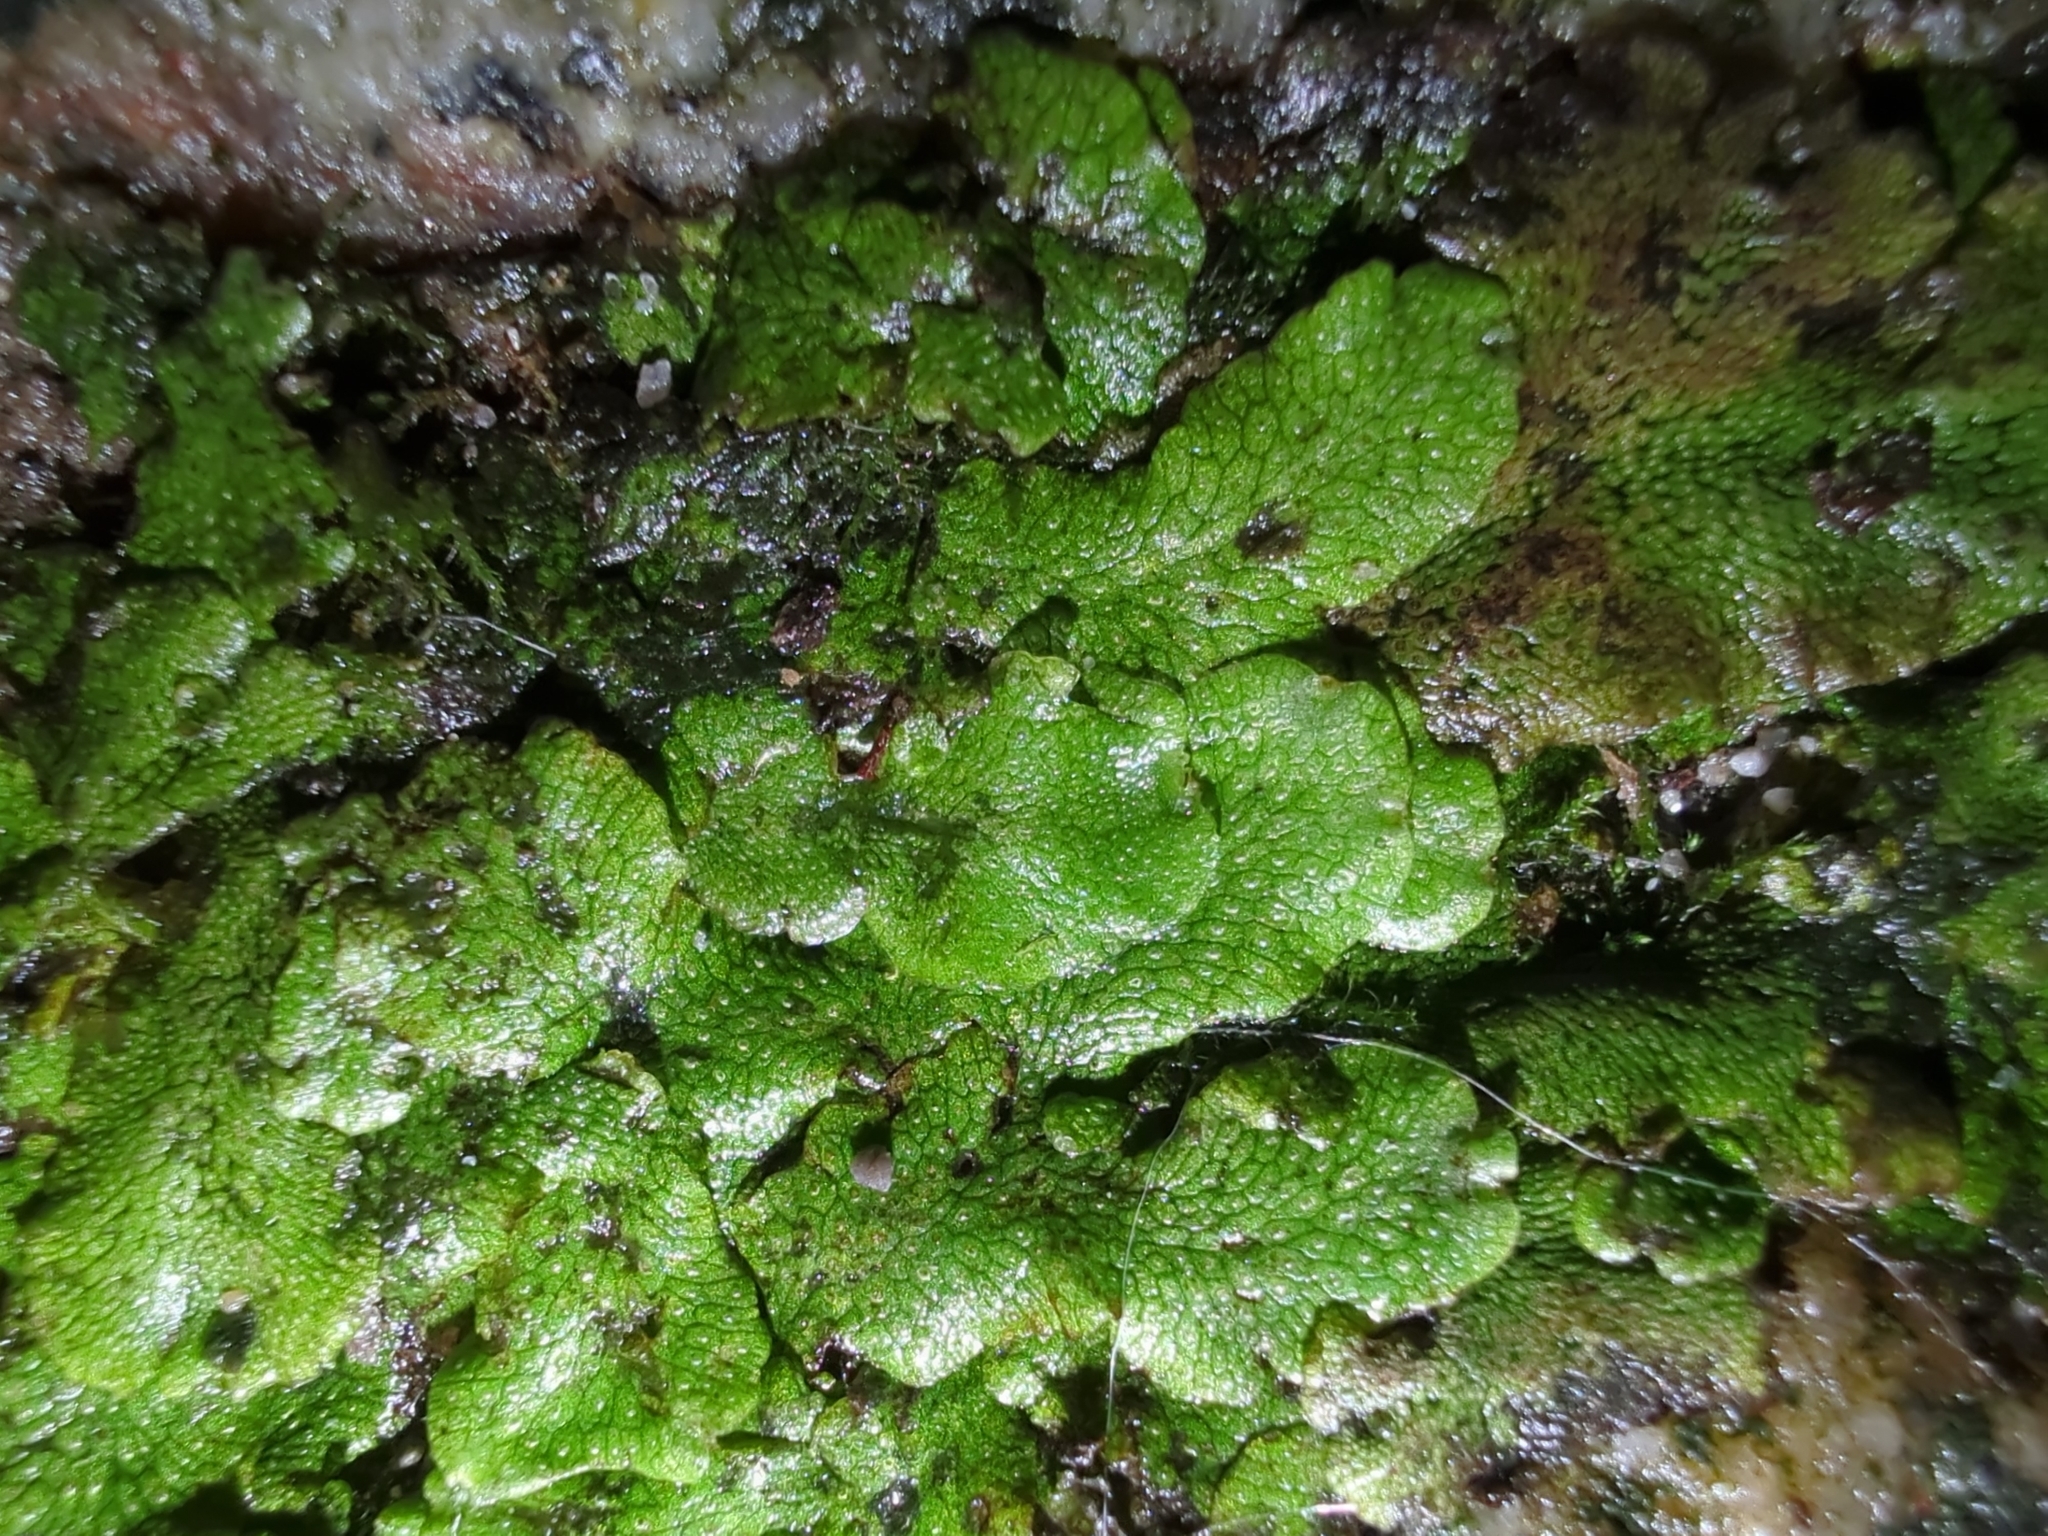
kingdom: Plantae
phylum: Marchantiophyta
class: Marchantiopsida
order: Marchantiales
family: Conocephalaceae
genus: Conocephalum
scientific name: Conocephalum salebrosum
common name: Cat-tongue liverwort
